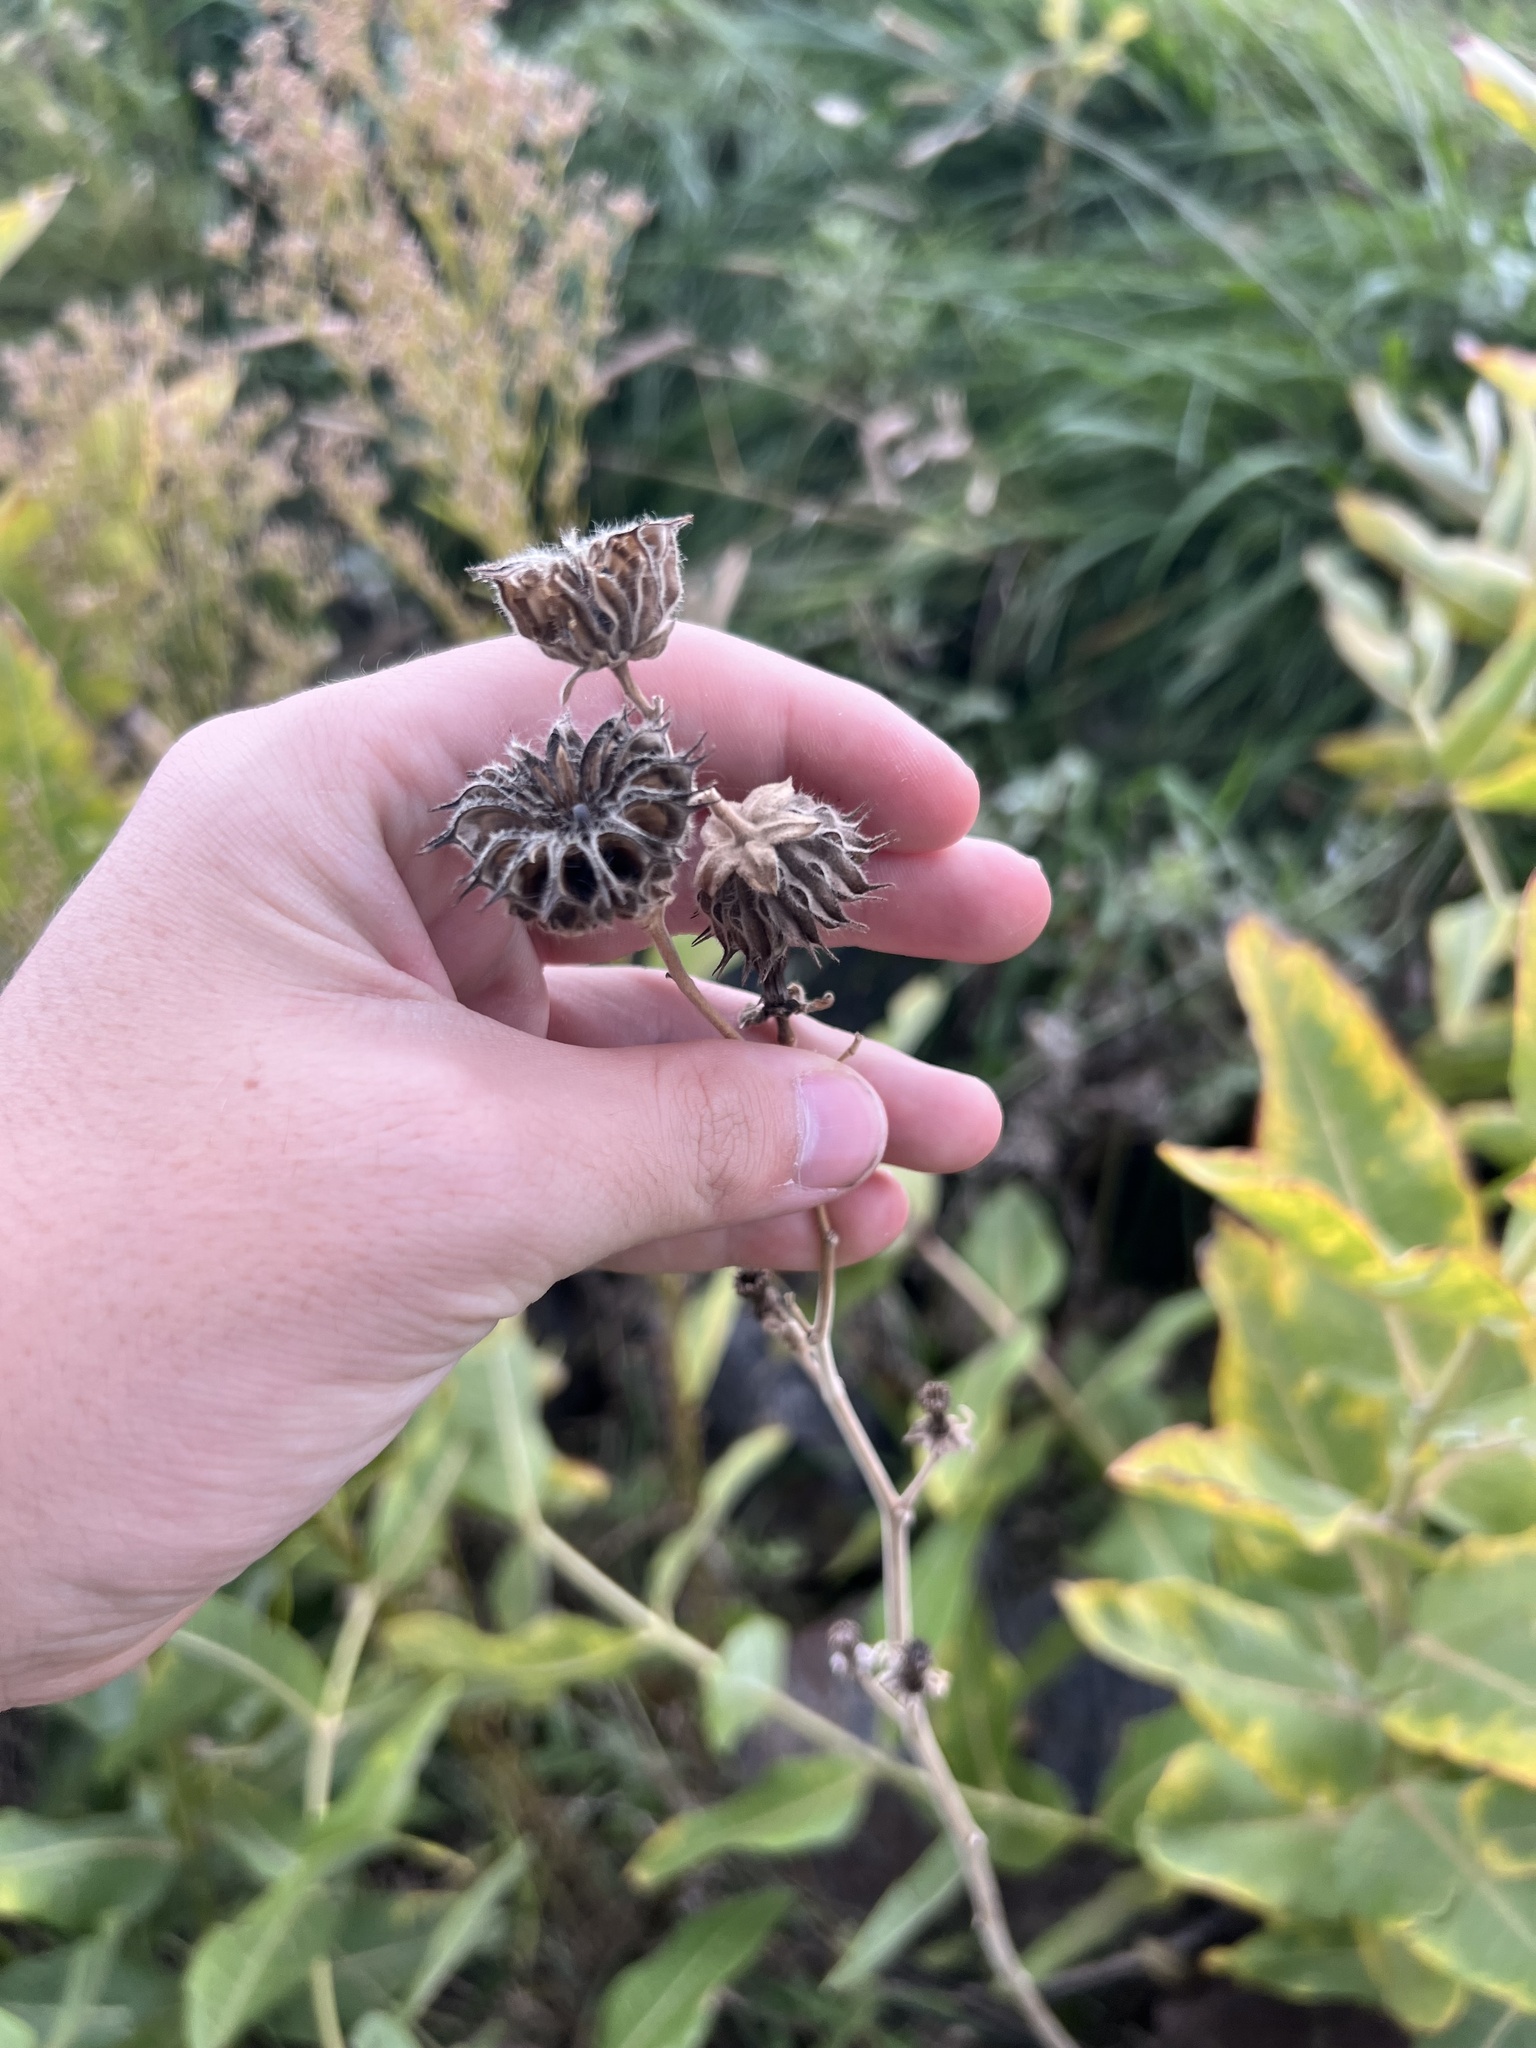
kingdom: Plantae
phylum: Tracheophyta
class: Magnoliopsida
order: Malvales
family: Malvaceae
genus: Abutilon
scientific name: Abutilon theophrasti
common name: Velvetleaf
